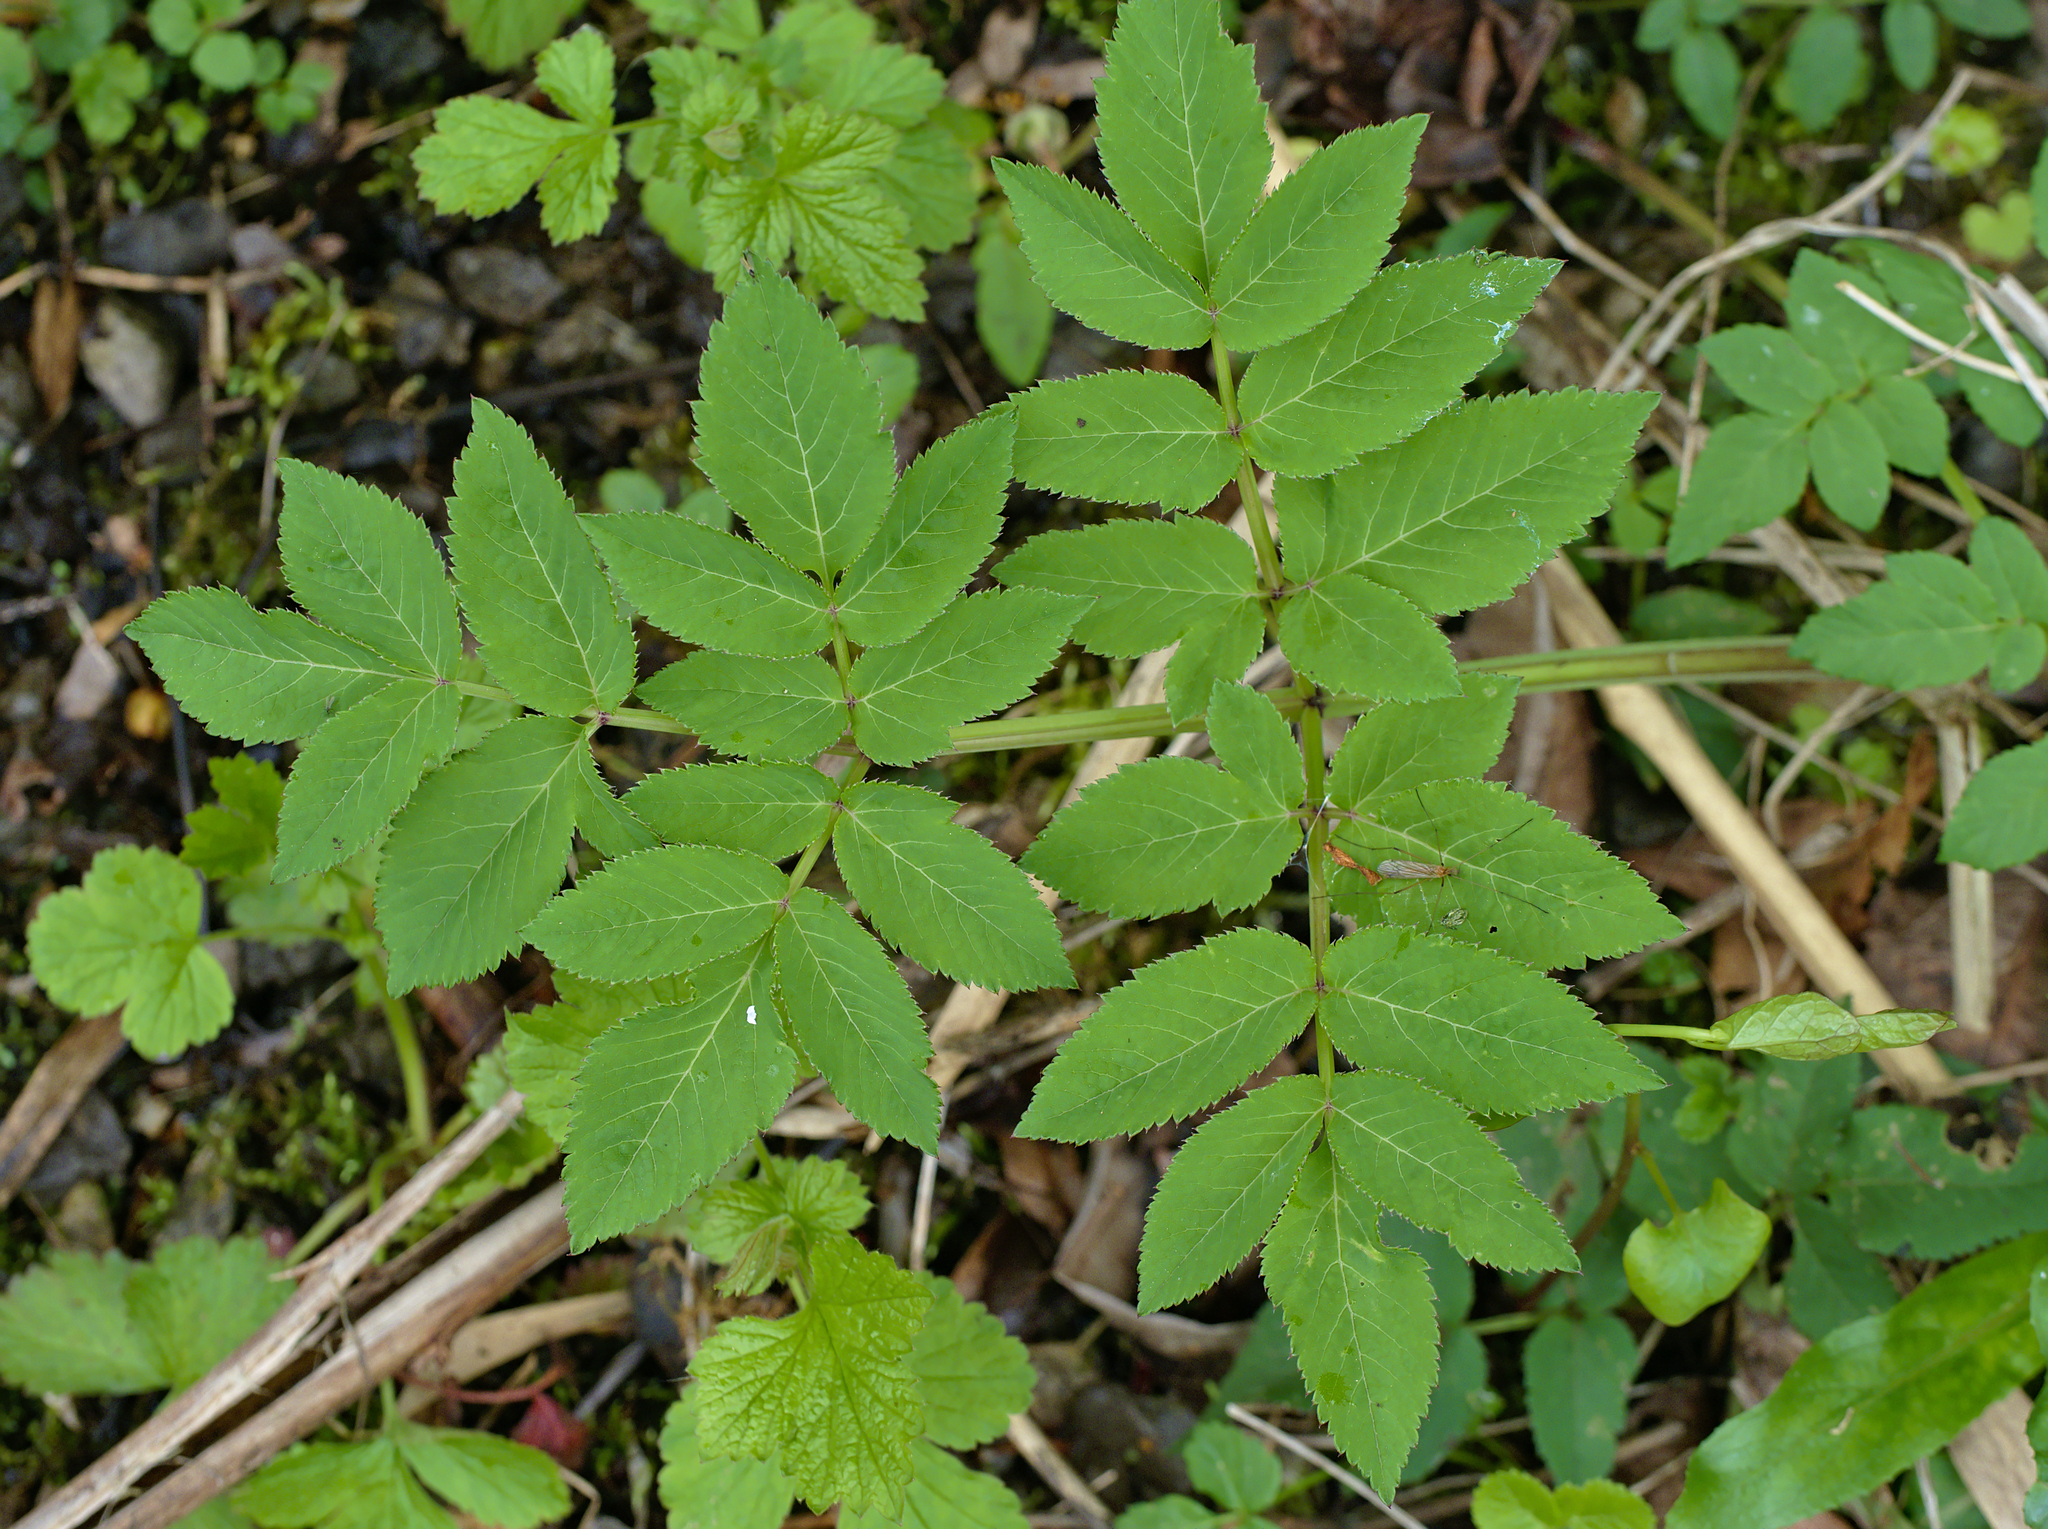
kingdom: Plantae
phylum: Tracheophyta
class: Magnoliopsida
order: Apiales
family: Apiaceae
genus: Angelica
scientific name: Angelica sylvestris
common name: Wild angelica
